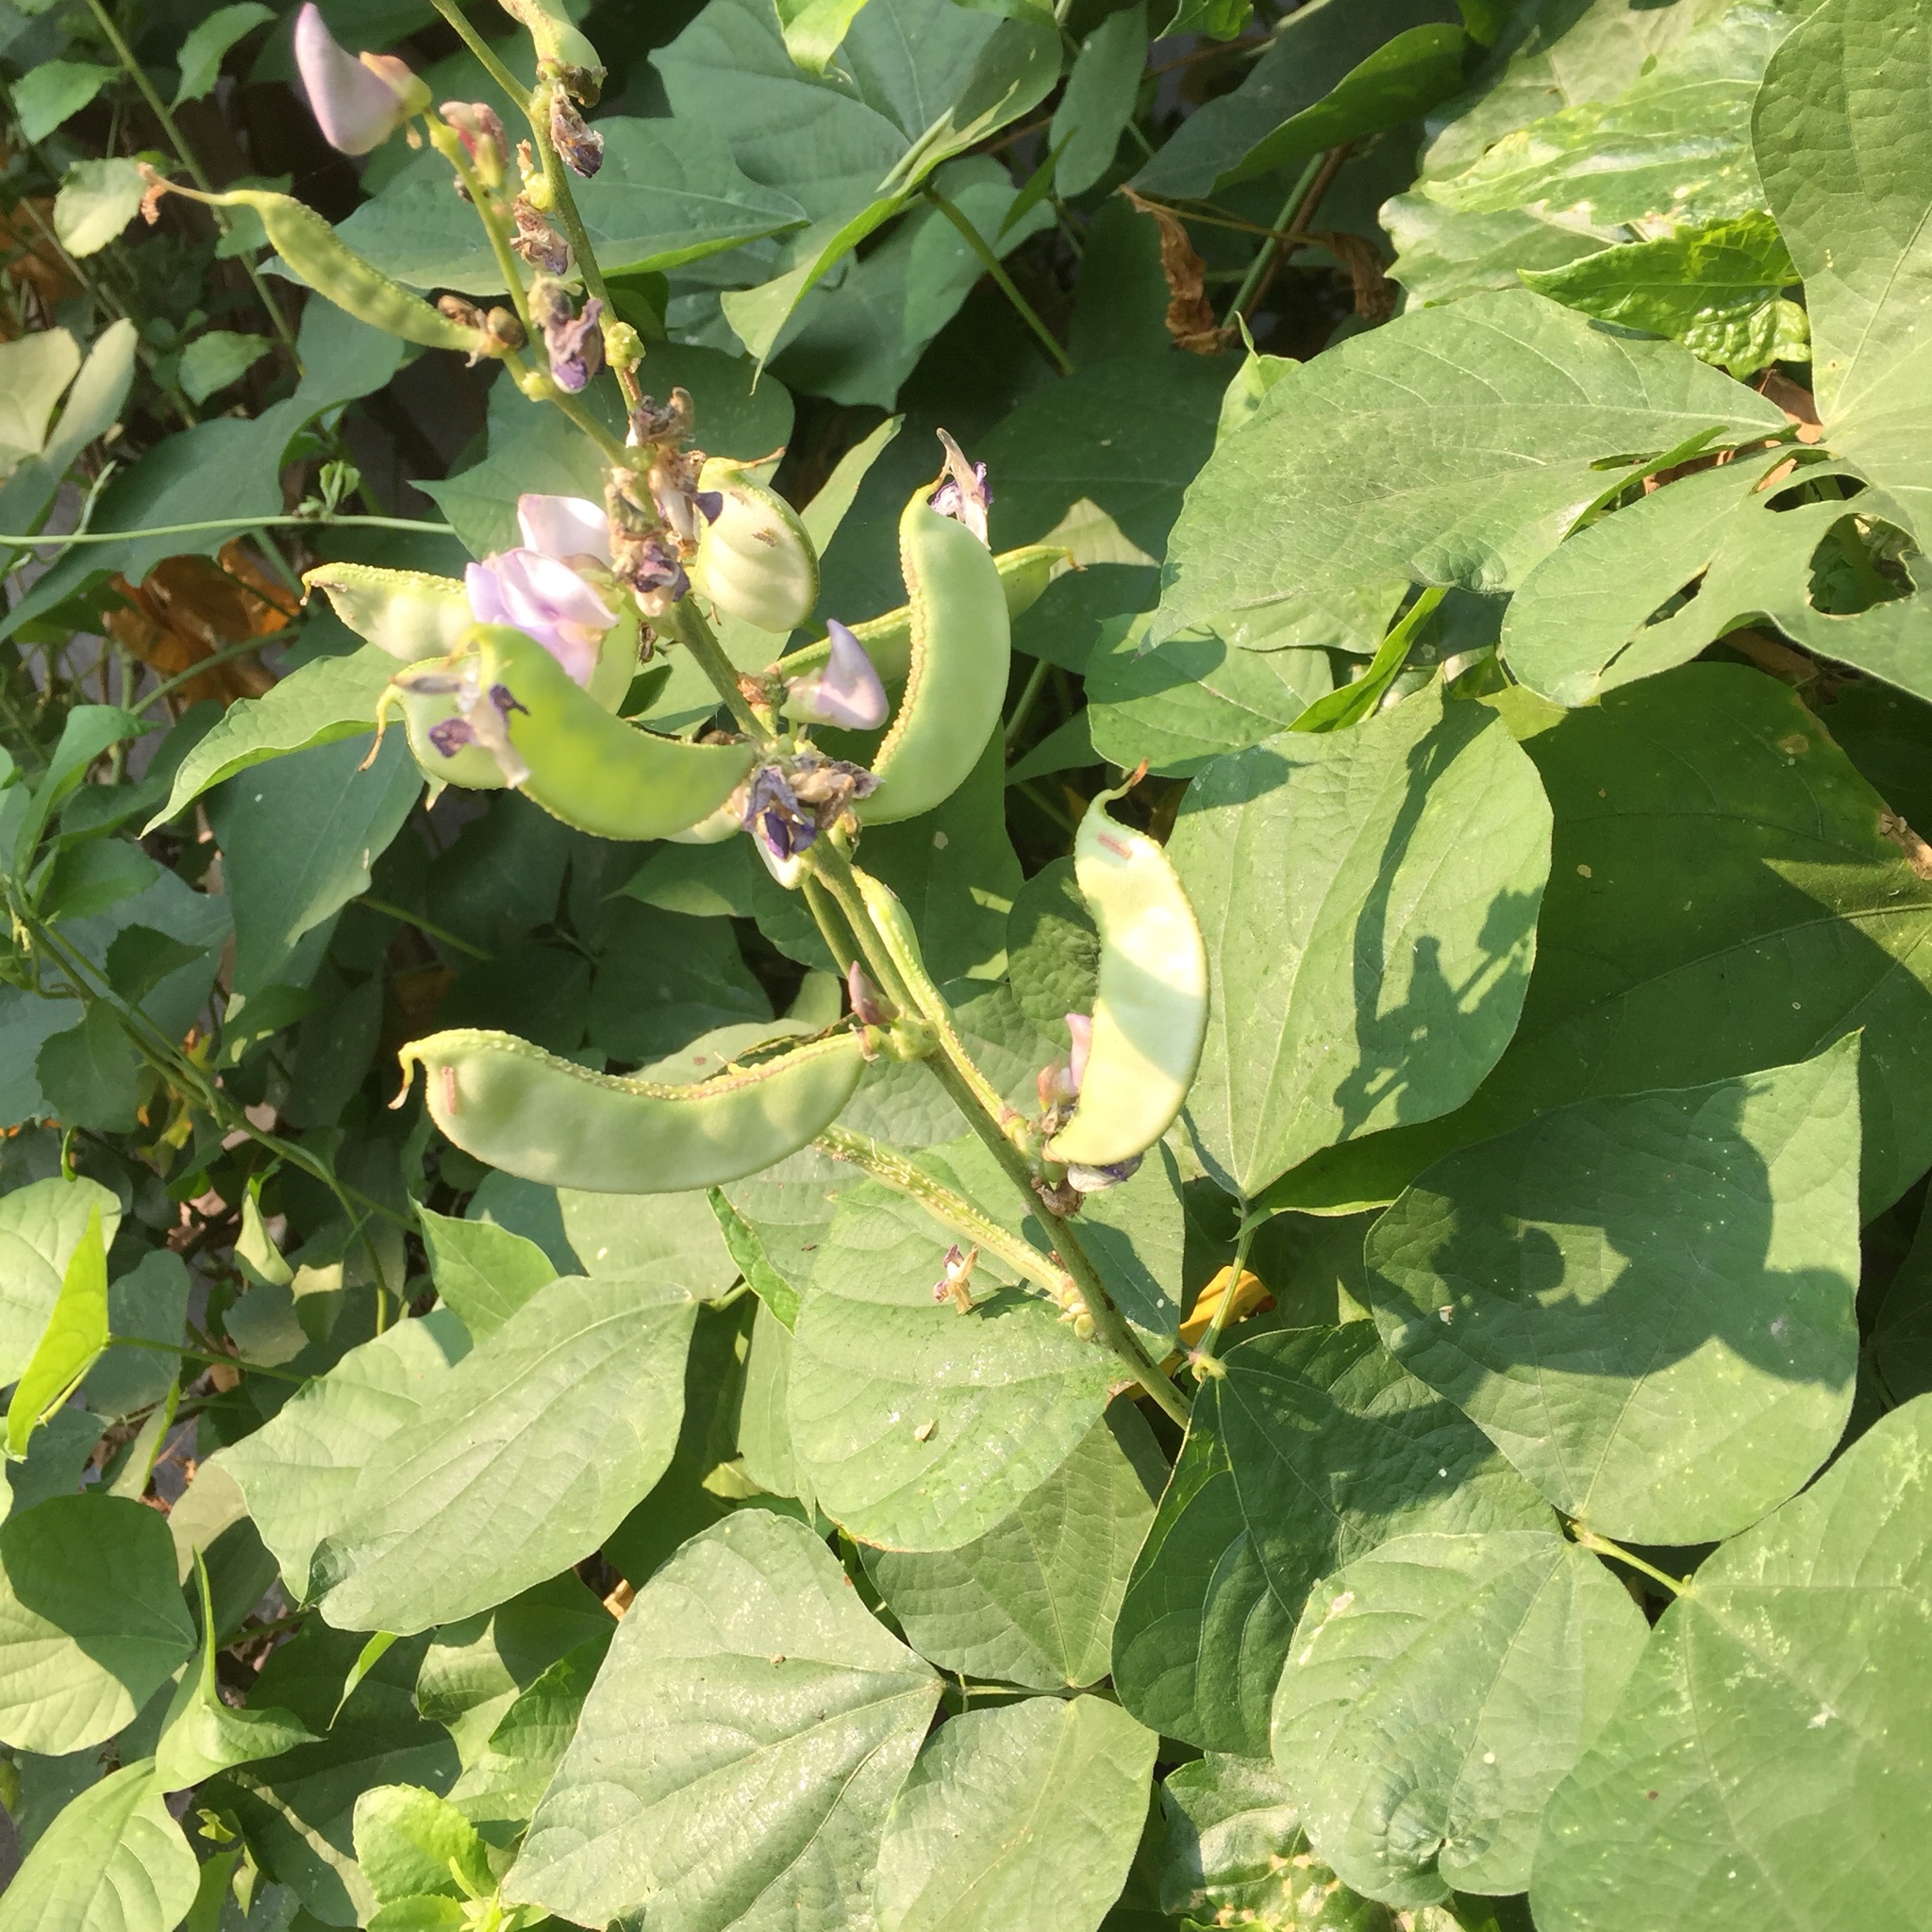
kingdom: Plantae
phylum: Tracheophyta
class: Magnoliopsida
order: Fabales
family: Fabaceae
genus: Lablab
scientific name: Lablab purpureus
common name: Lablab-bean
